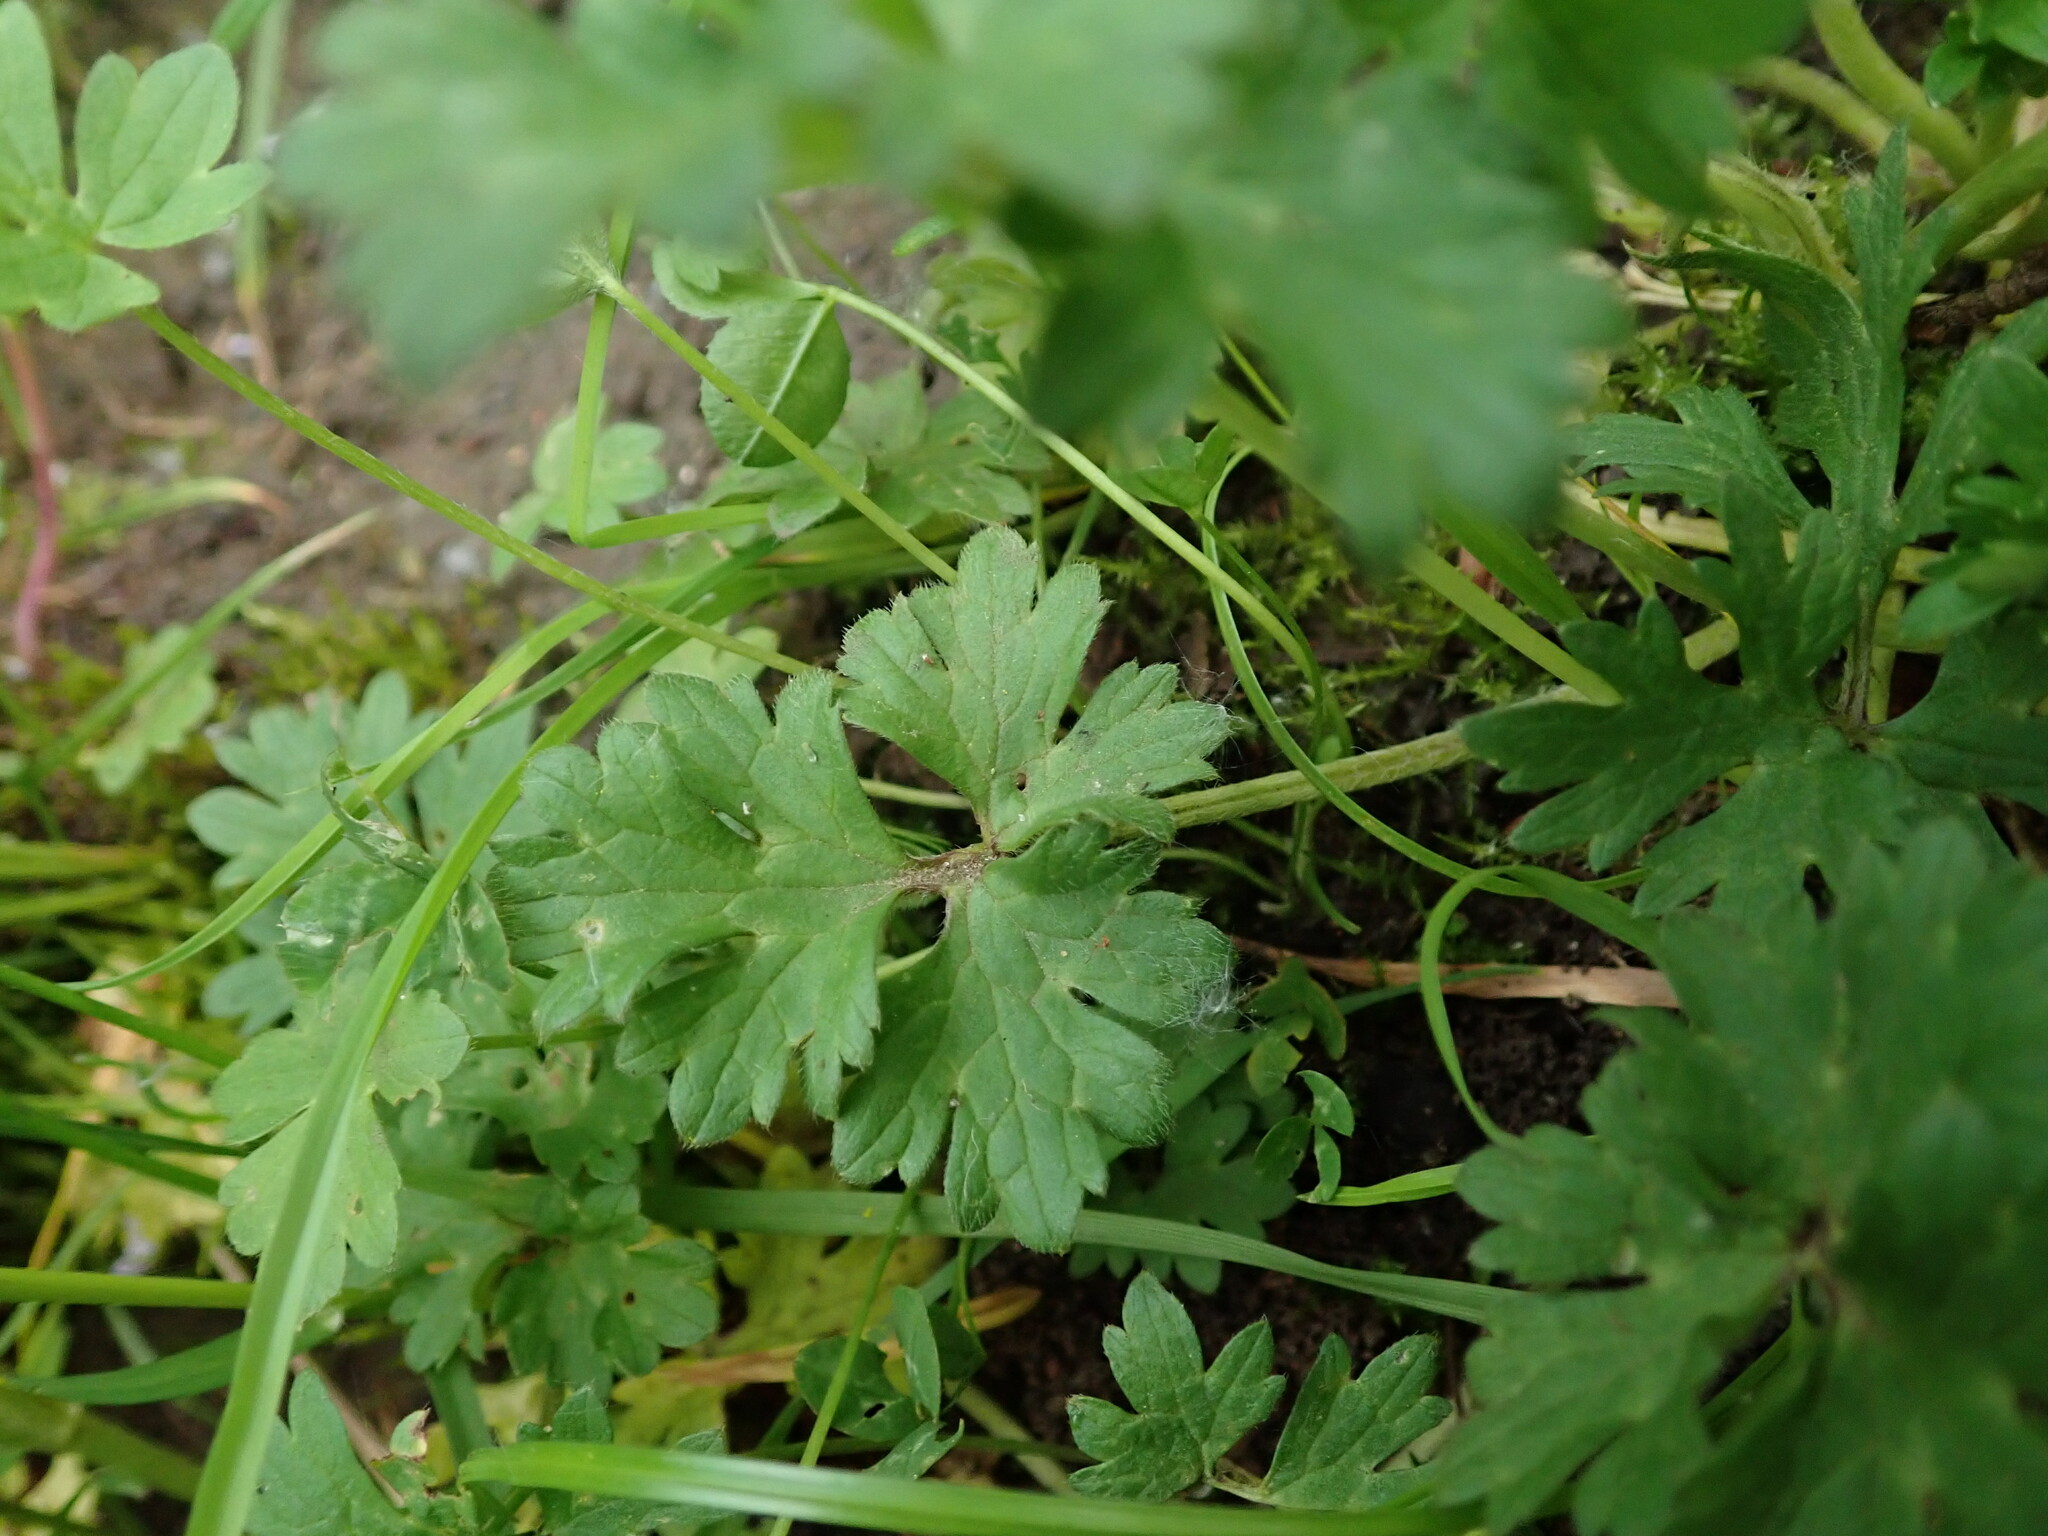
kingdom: Plantae
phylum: Tracheophyta
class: Magnoliopsida
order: Ranunculales
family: Ranunculaceae
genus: Ranunculus
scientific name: Ranunculus bulbosus
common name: Bulbous buttercup
